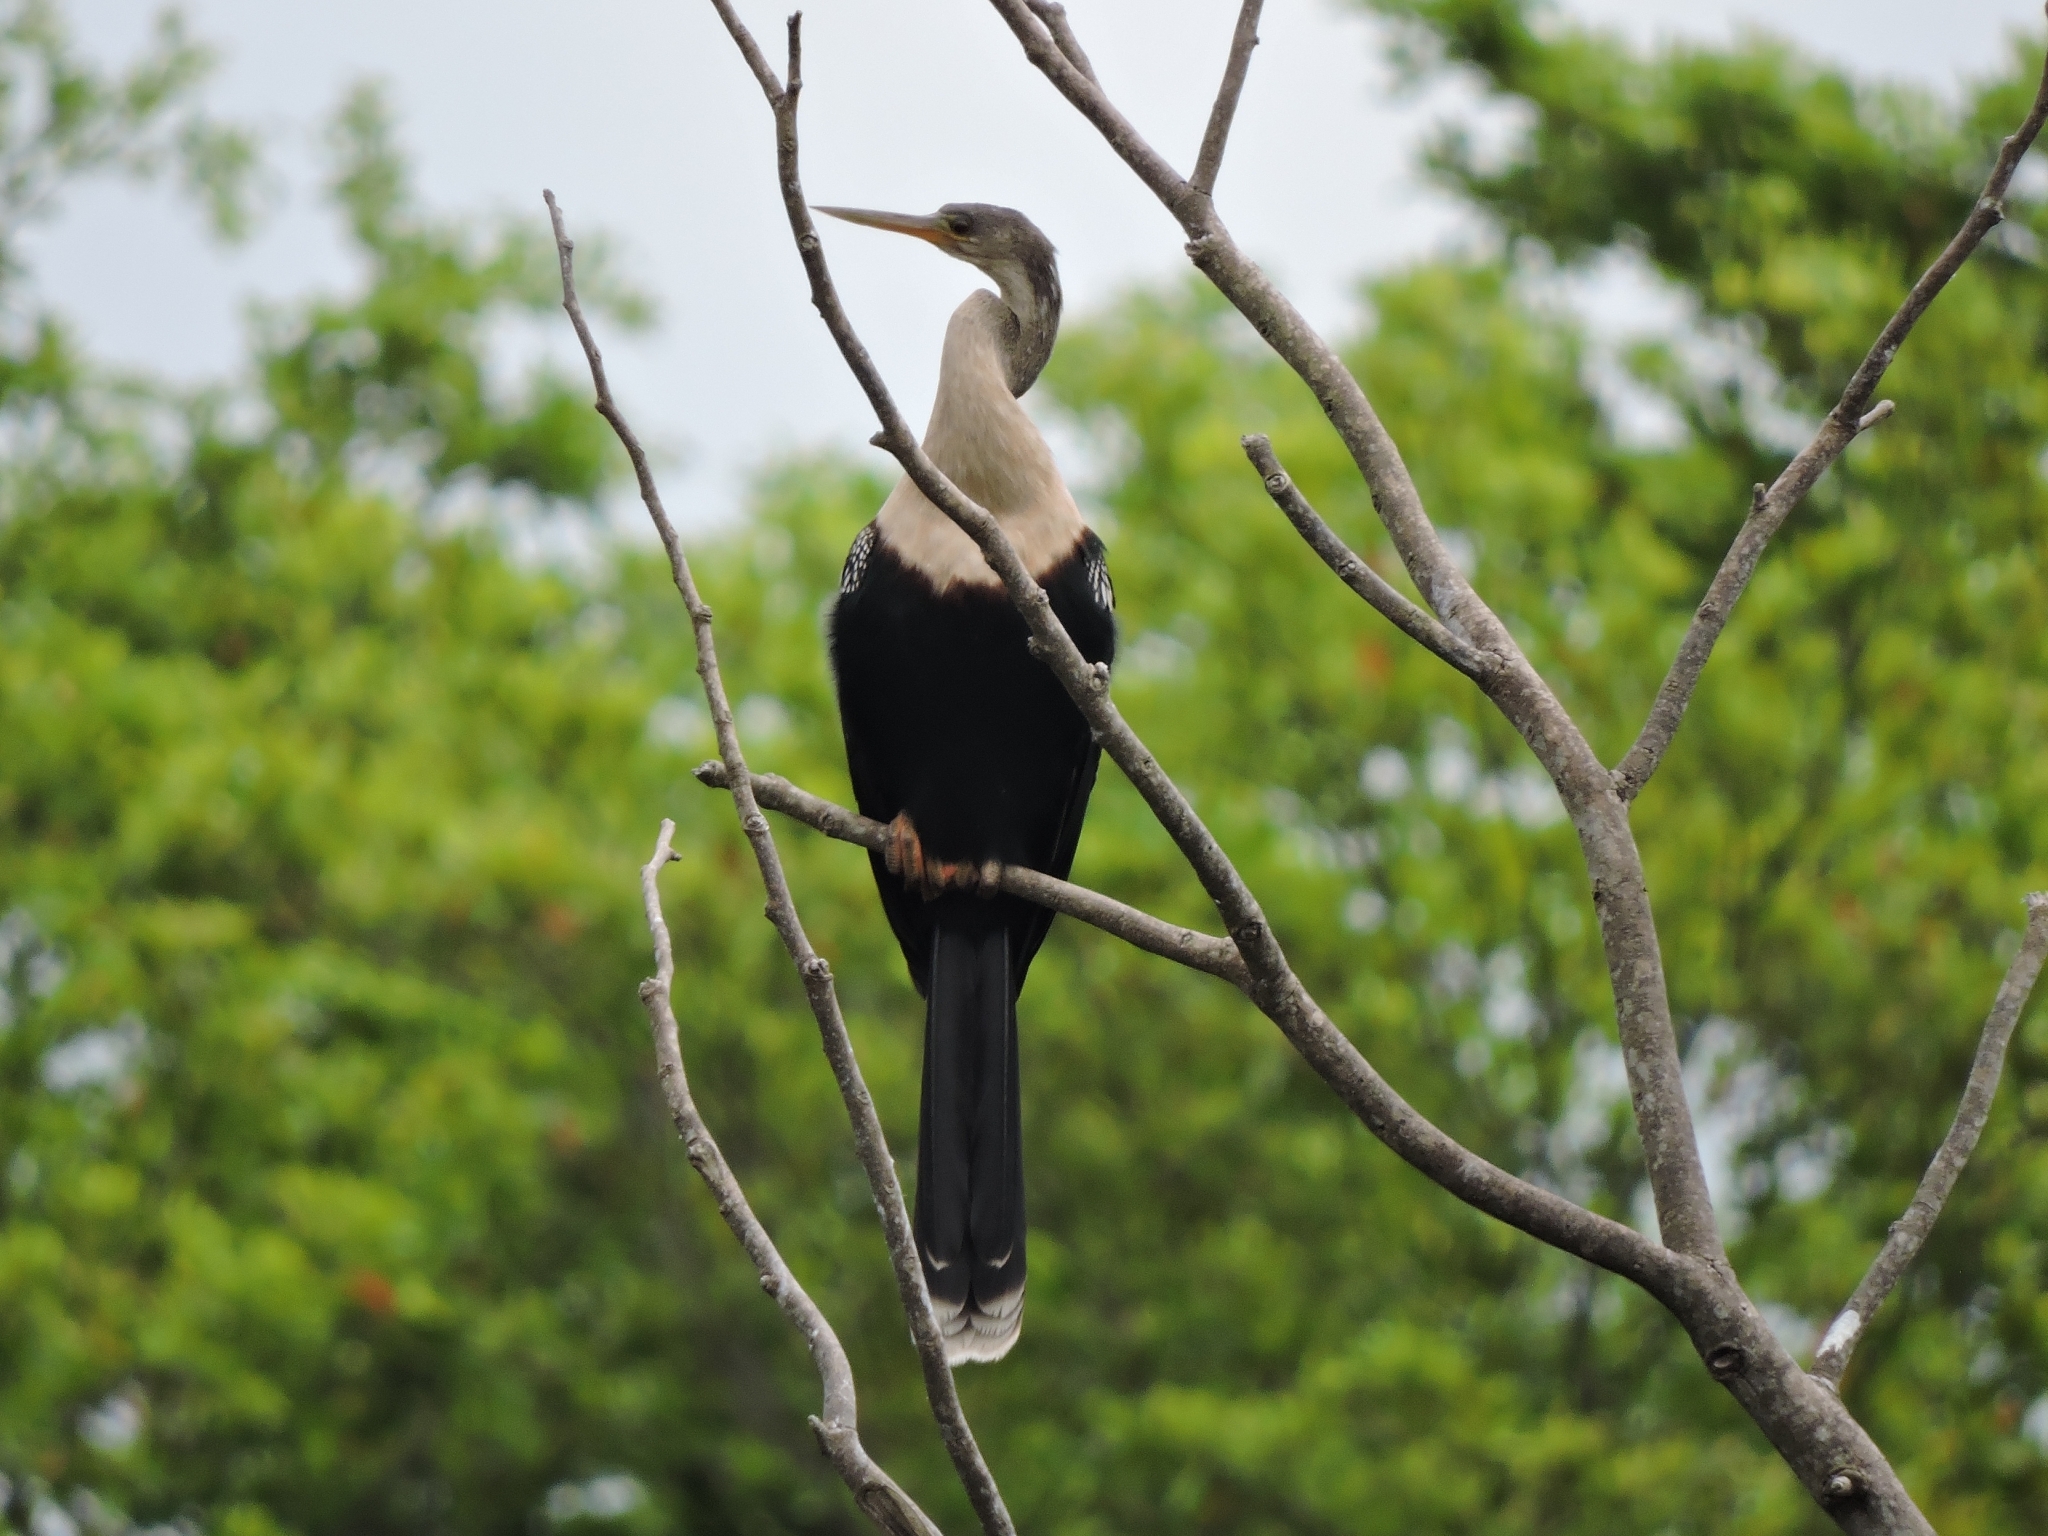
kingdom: Animalia
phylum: Chordata
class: Aves
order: Suliformes
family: Anhingidae
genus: Anhinga
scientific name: Anhinga anhinga
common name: Anhinga
